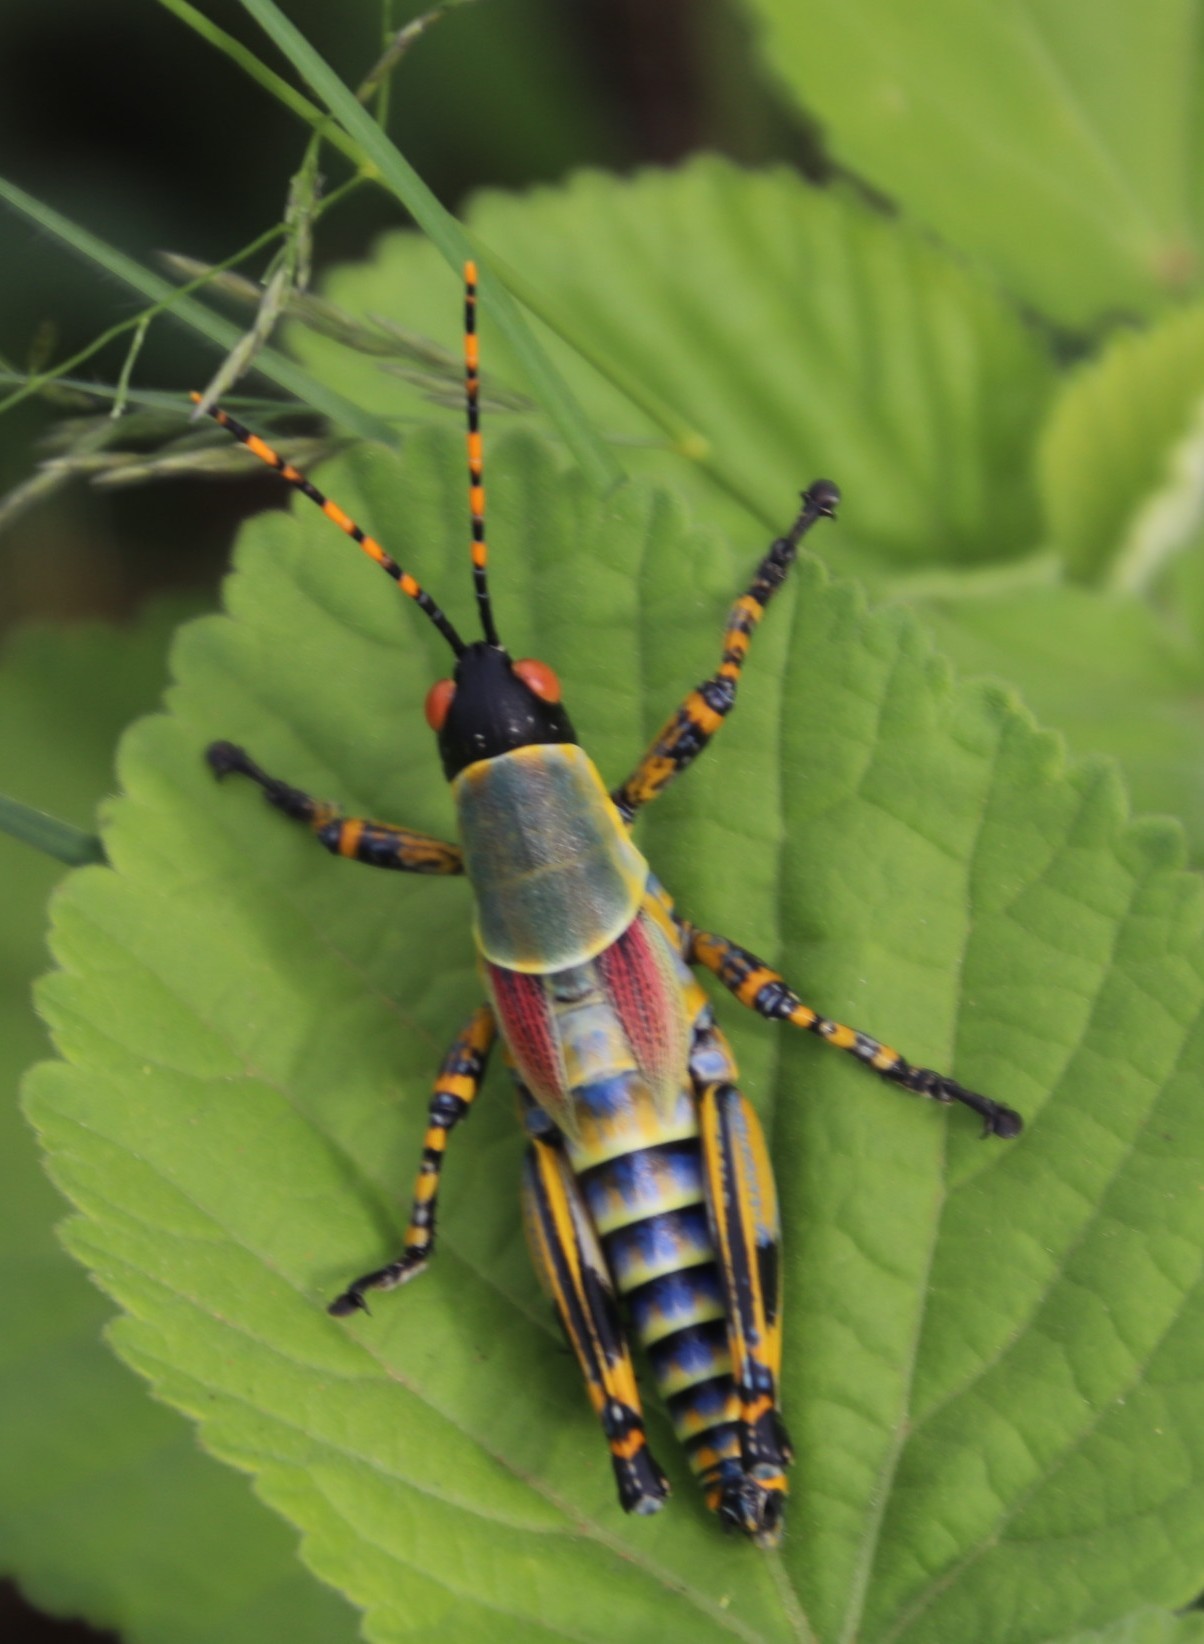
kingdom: Animalia
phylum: Arthropoda
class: Insecta
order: Orthoptera
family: Pyrgomorphidae
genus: Zonocerus
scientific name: Zonocerus elegans
